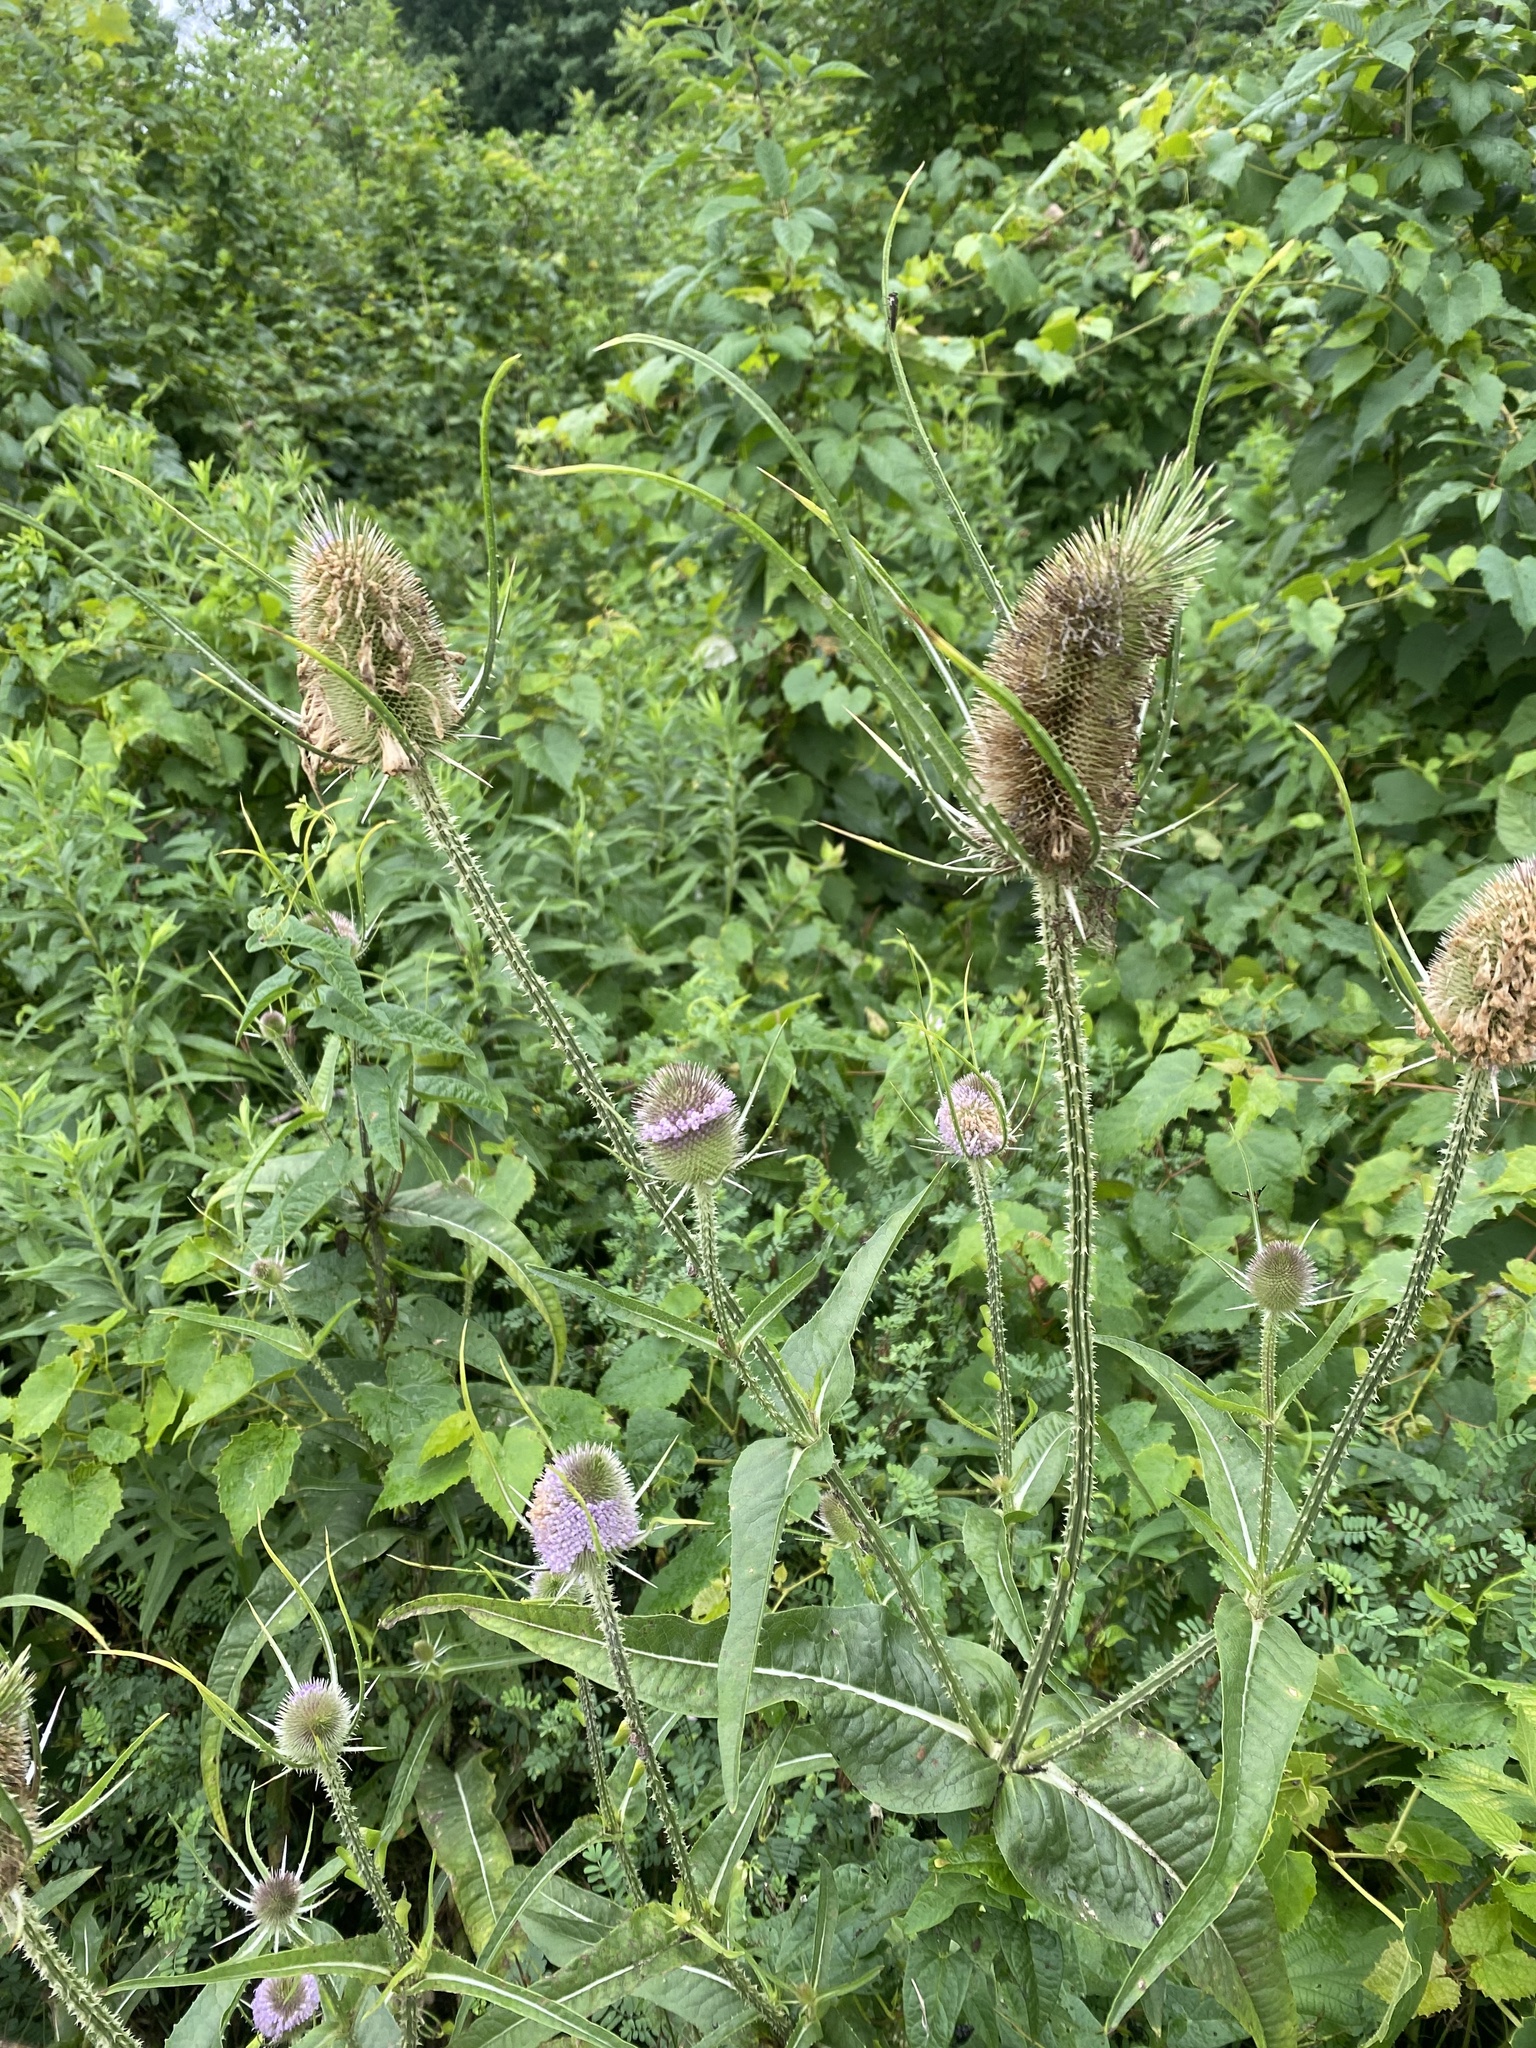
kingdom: Plantae
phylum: Tracheophyta
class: Magnoliopsida
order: Dipsacales
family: Caprifoliaceae
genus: Dipsacus
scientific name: Dipsacus fullonum
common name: Teasel
